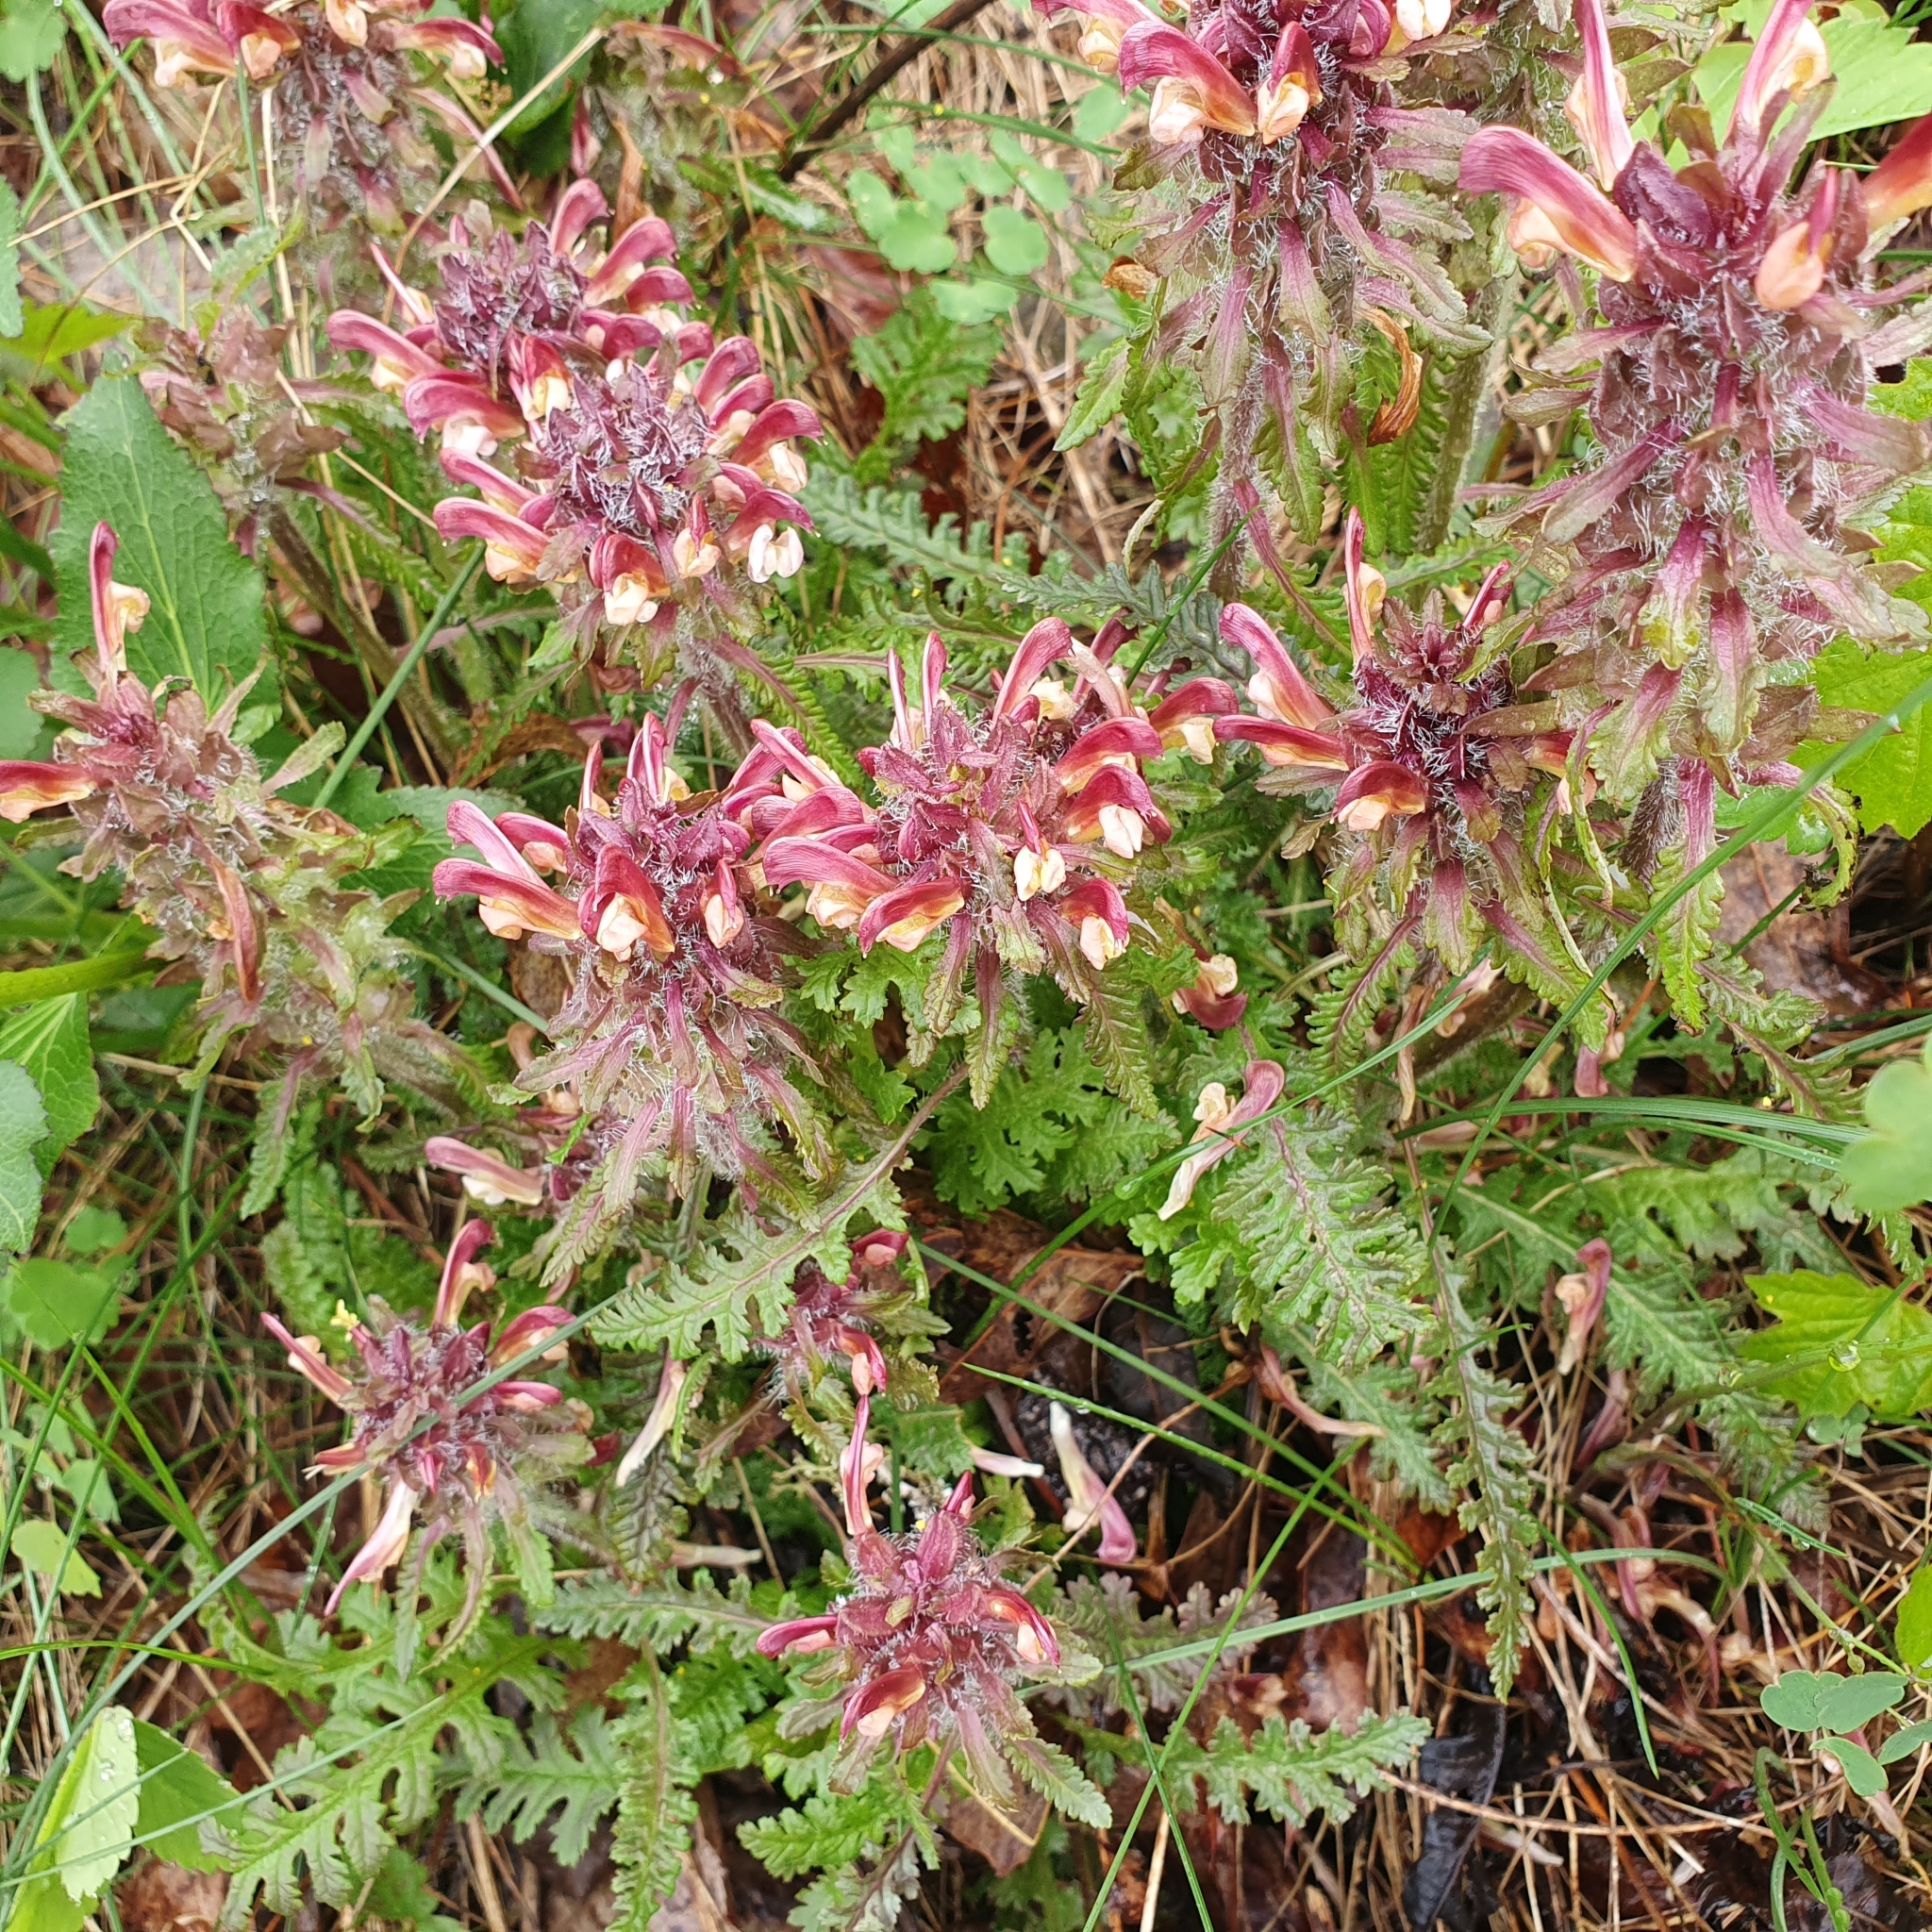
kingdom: Plantae
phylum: Tracheophyta
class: Magnoliopsida
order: Lamiales
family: Orobanchaceae
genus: Pedicularis
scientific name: Pedicularis canadensis
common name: Early lousewort
